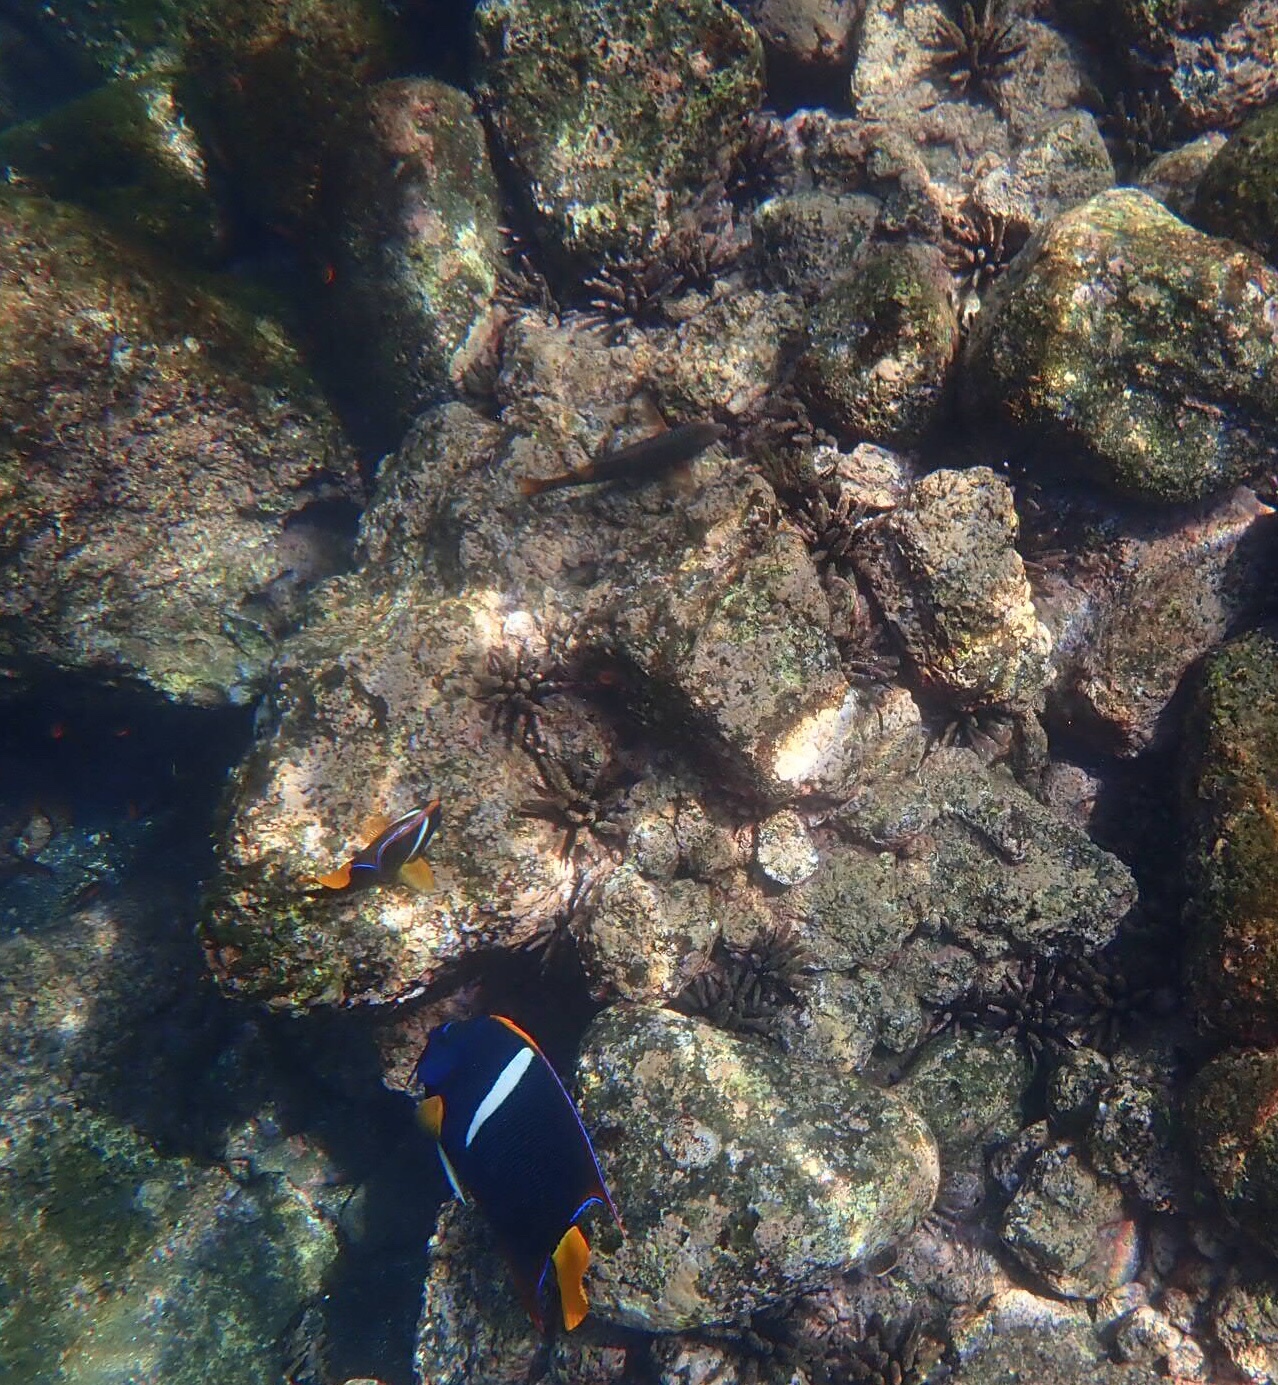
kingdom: Animalia
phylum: Chordata
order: Perciformes
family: Pomacanthidae
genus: Holacanthus
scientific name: Holacanthus passer
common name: King angelfish
